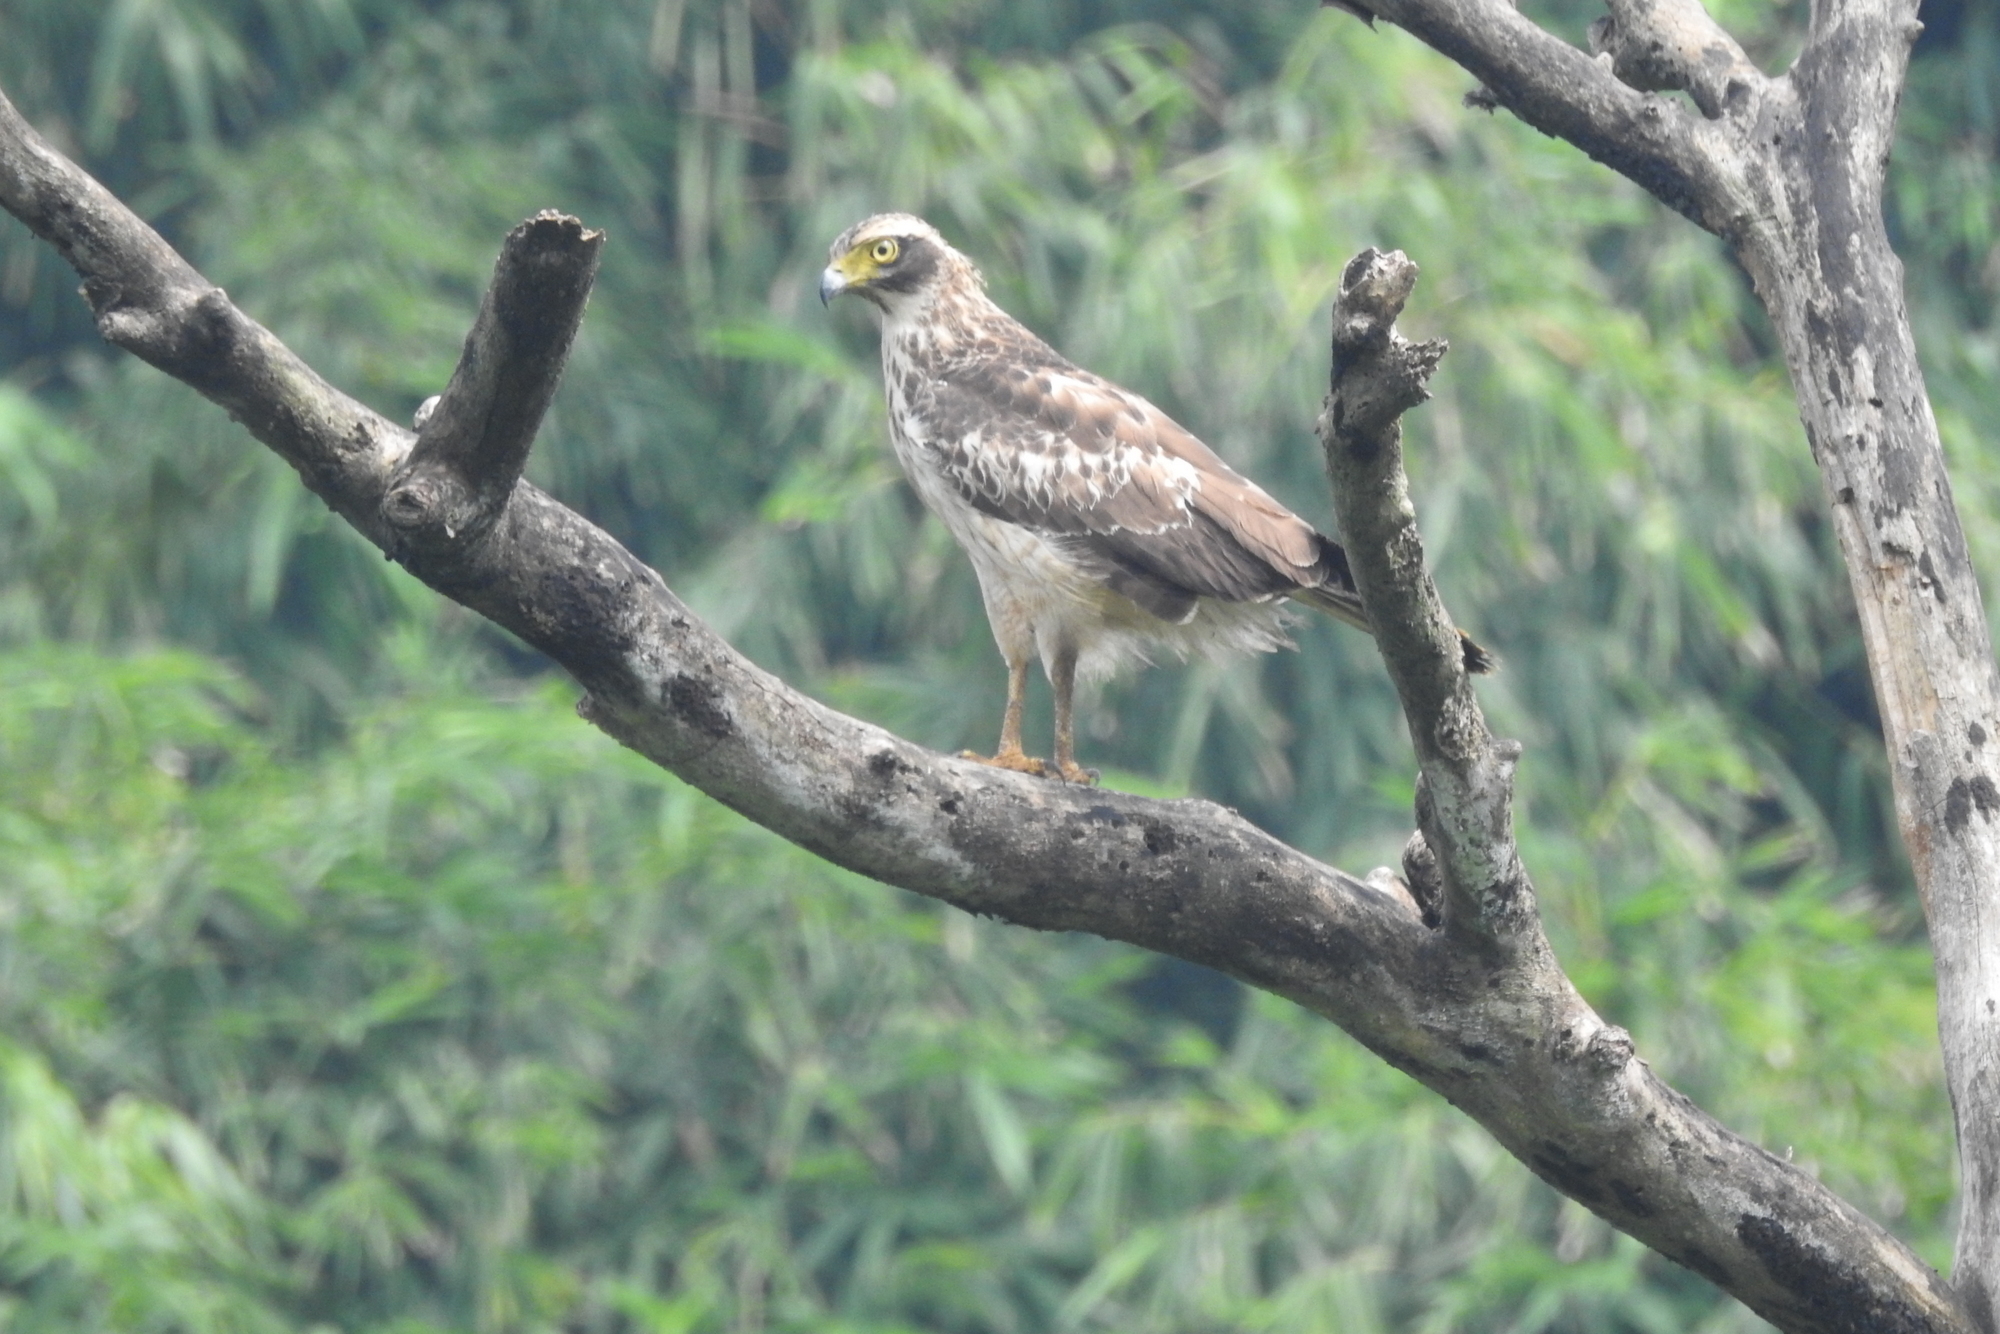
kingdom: Animalia
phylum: Chordata
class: Aves
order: Accipitriformes
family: Accipitridae
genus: Spilornis
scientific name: Spilornis cheela
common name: Crested serpent eagle
